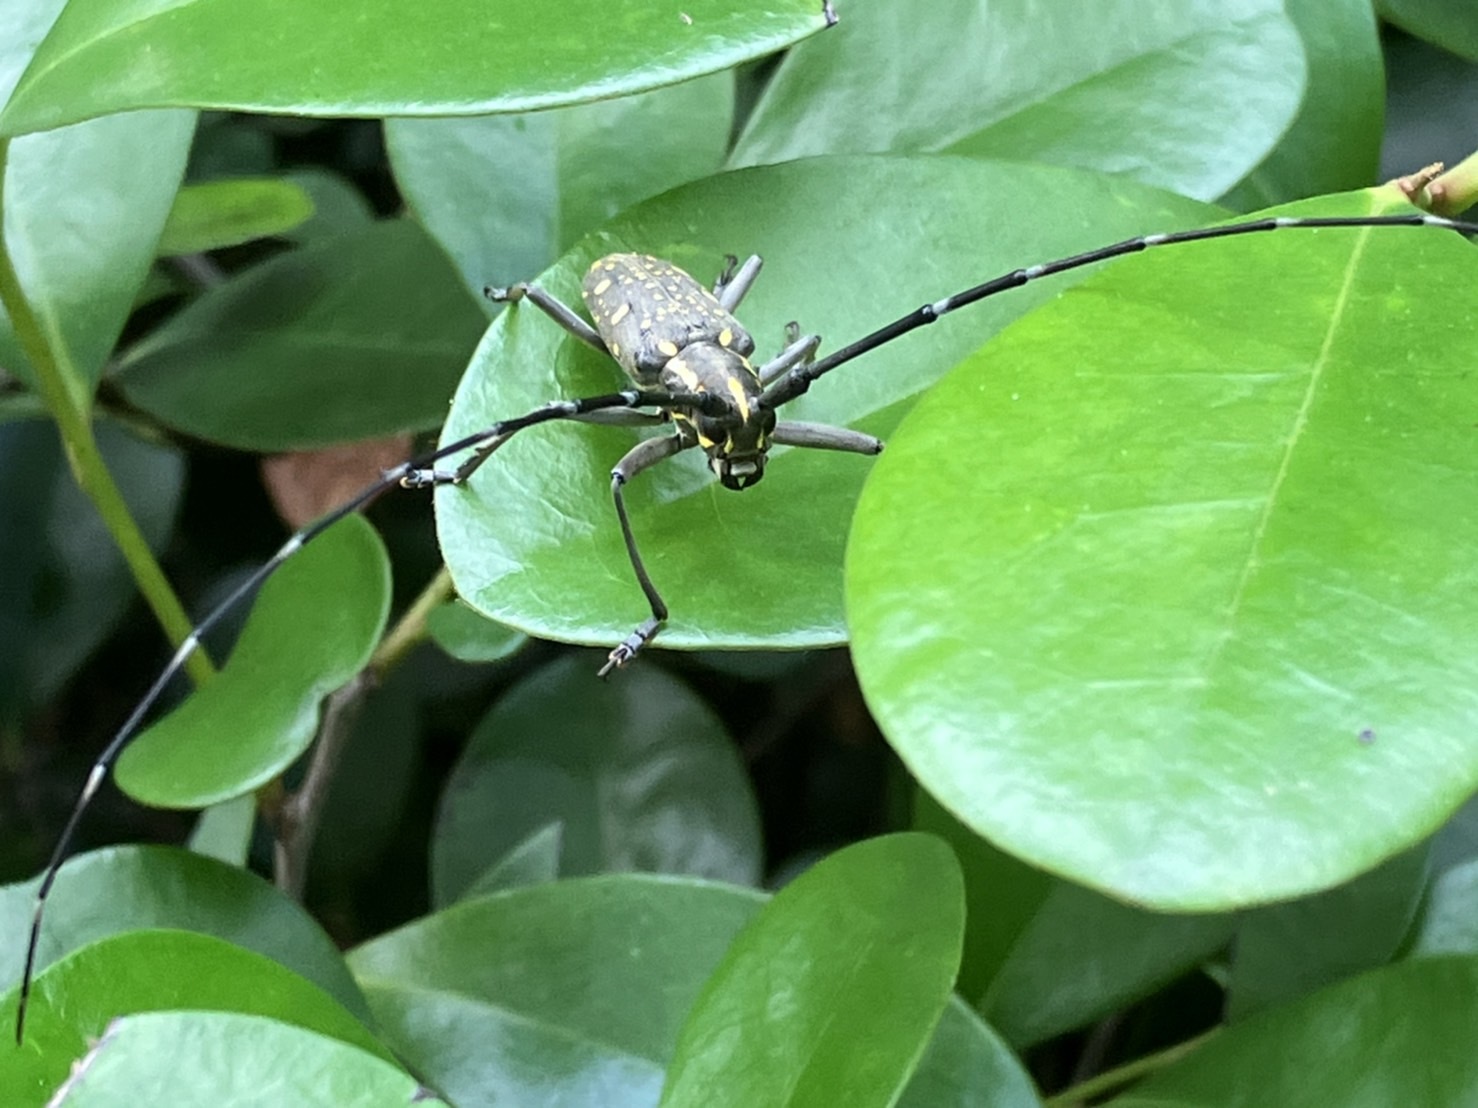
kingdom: Animalia
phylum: Arthropoda
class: Insecta
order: Coleoptera
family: Cerambycidae
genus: Psacothea
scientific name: Psacothea hilaris
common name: Yellow-spotted longicorn beetle
